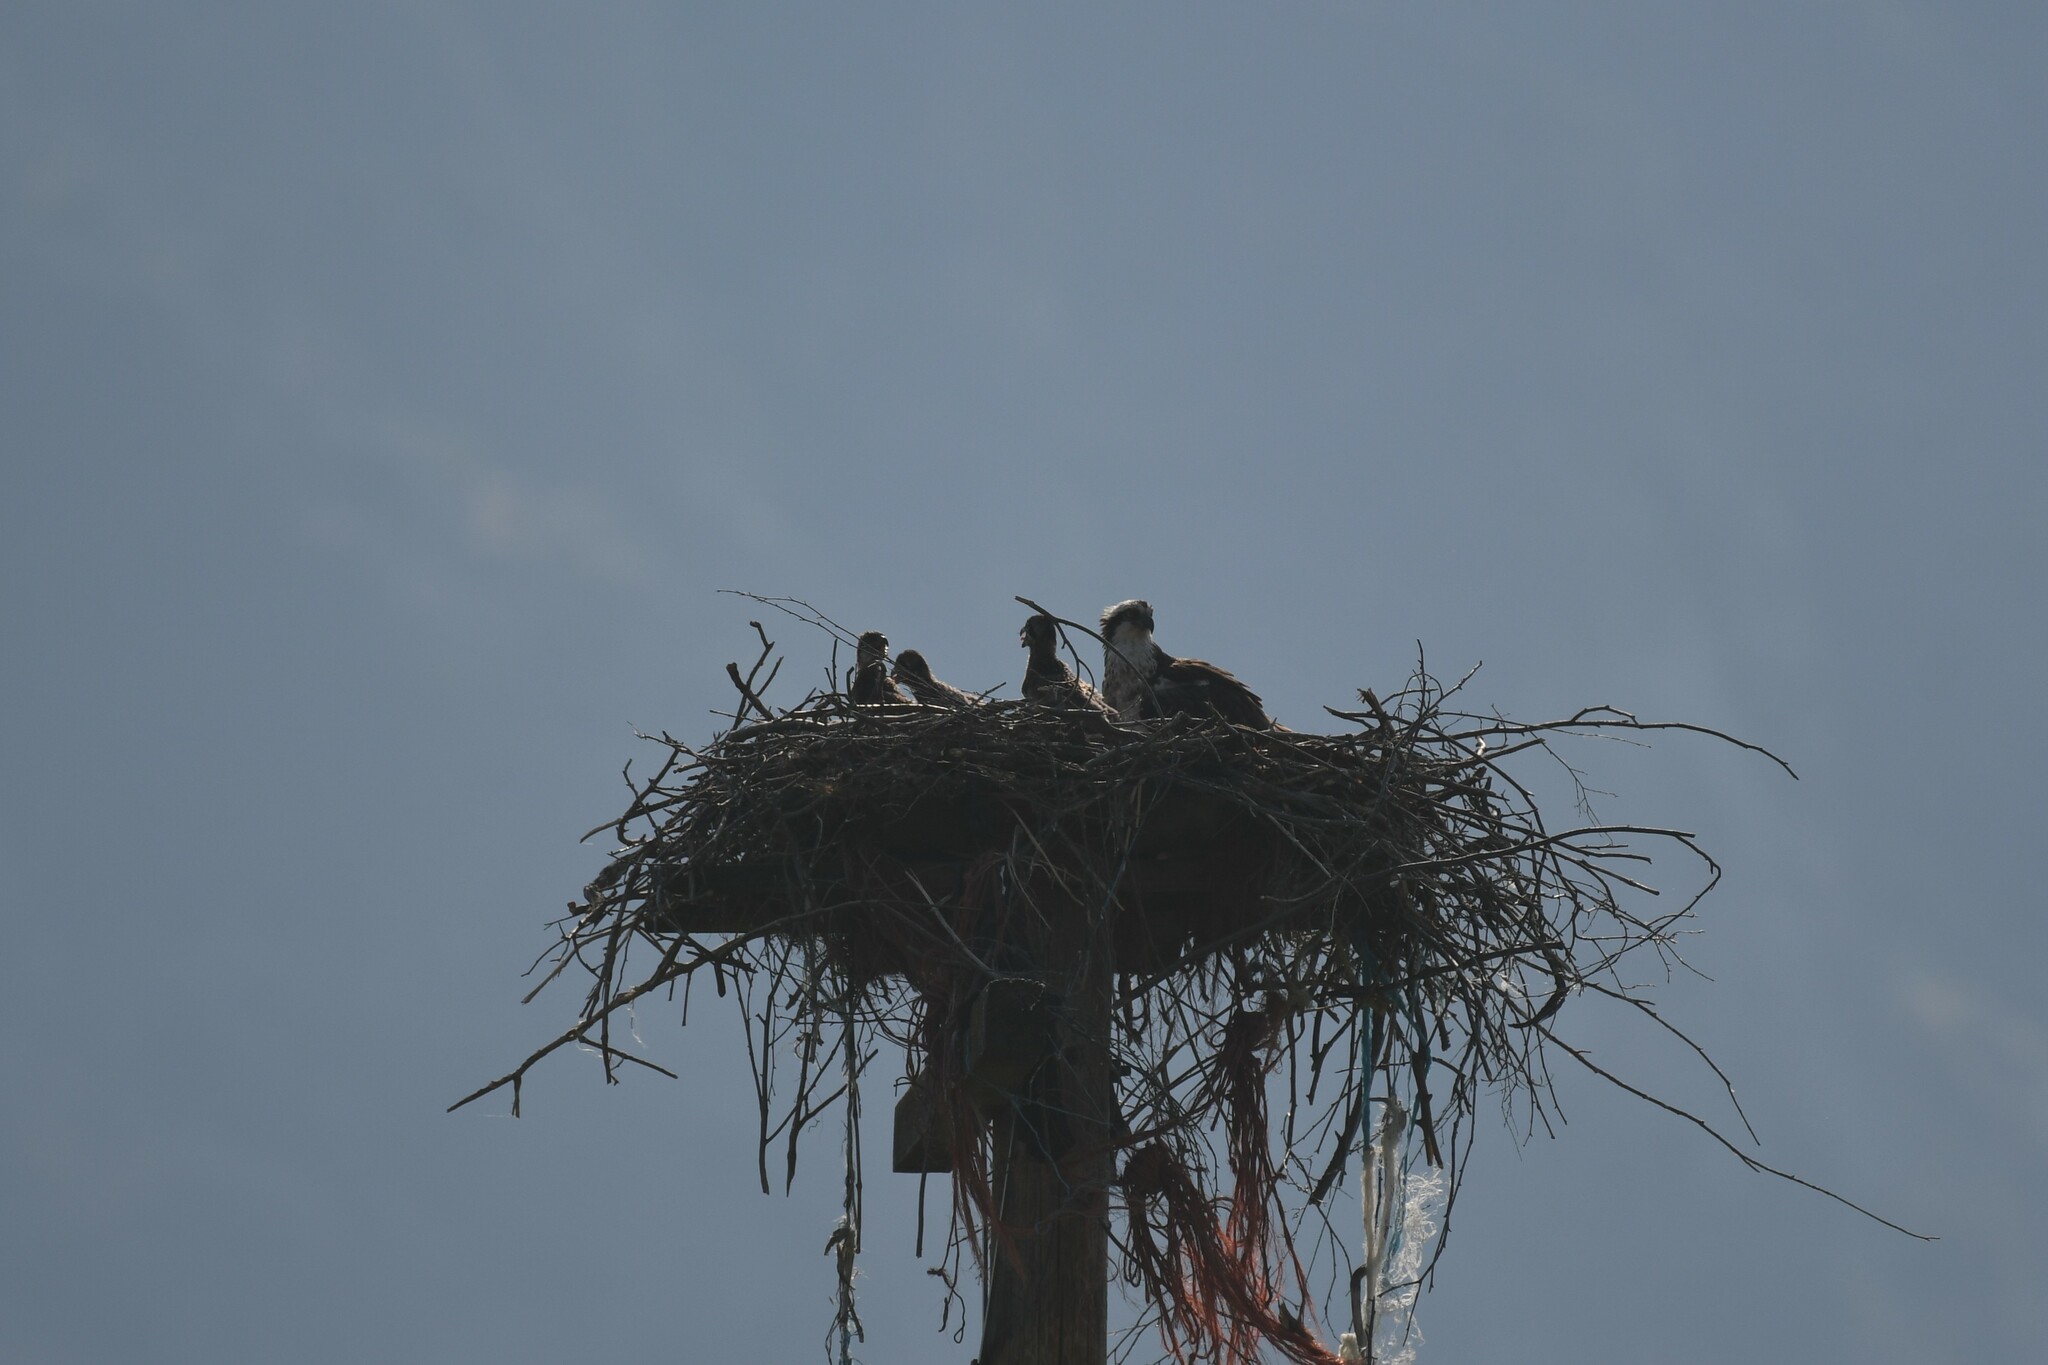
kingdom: Animalia
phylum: Chordata
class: Aves
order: Accipitriformes
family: Pandionidae
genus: Pandion
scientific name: Pandion haliaetus
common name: Osprey
